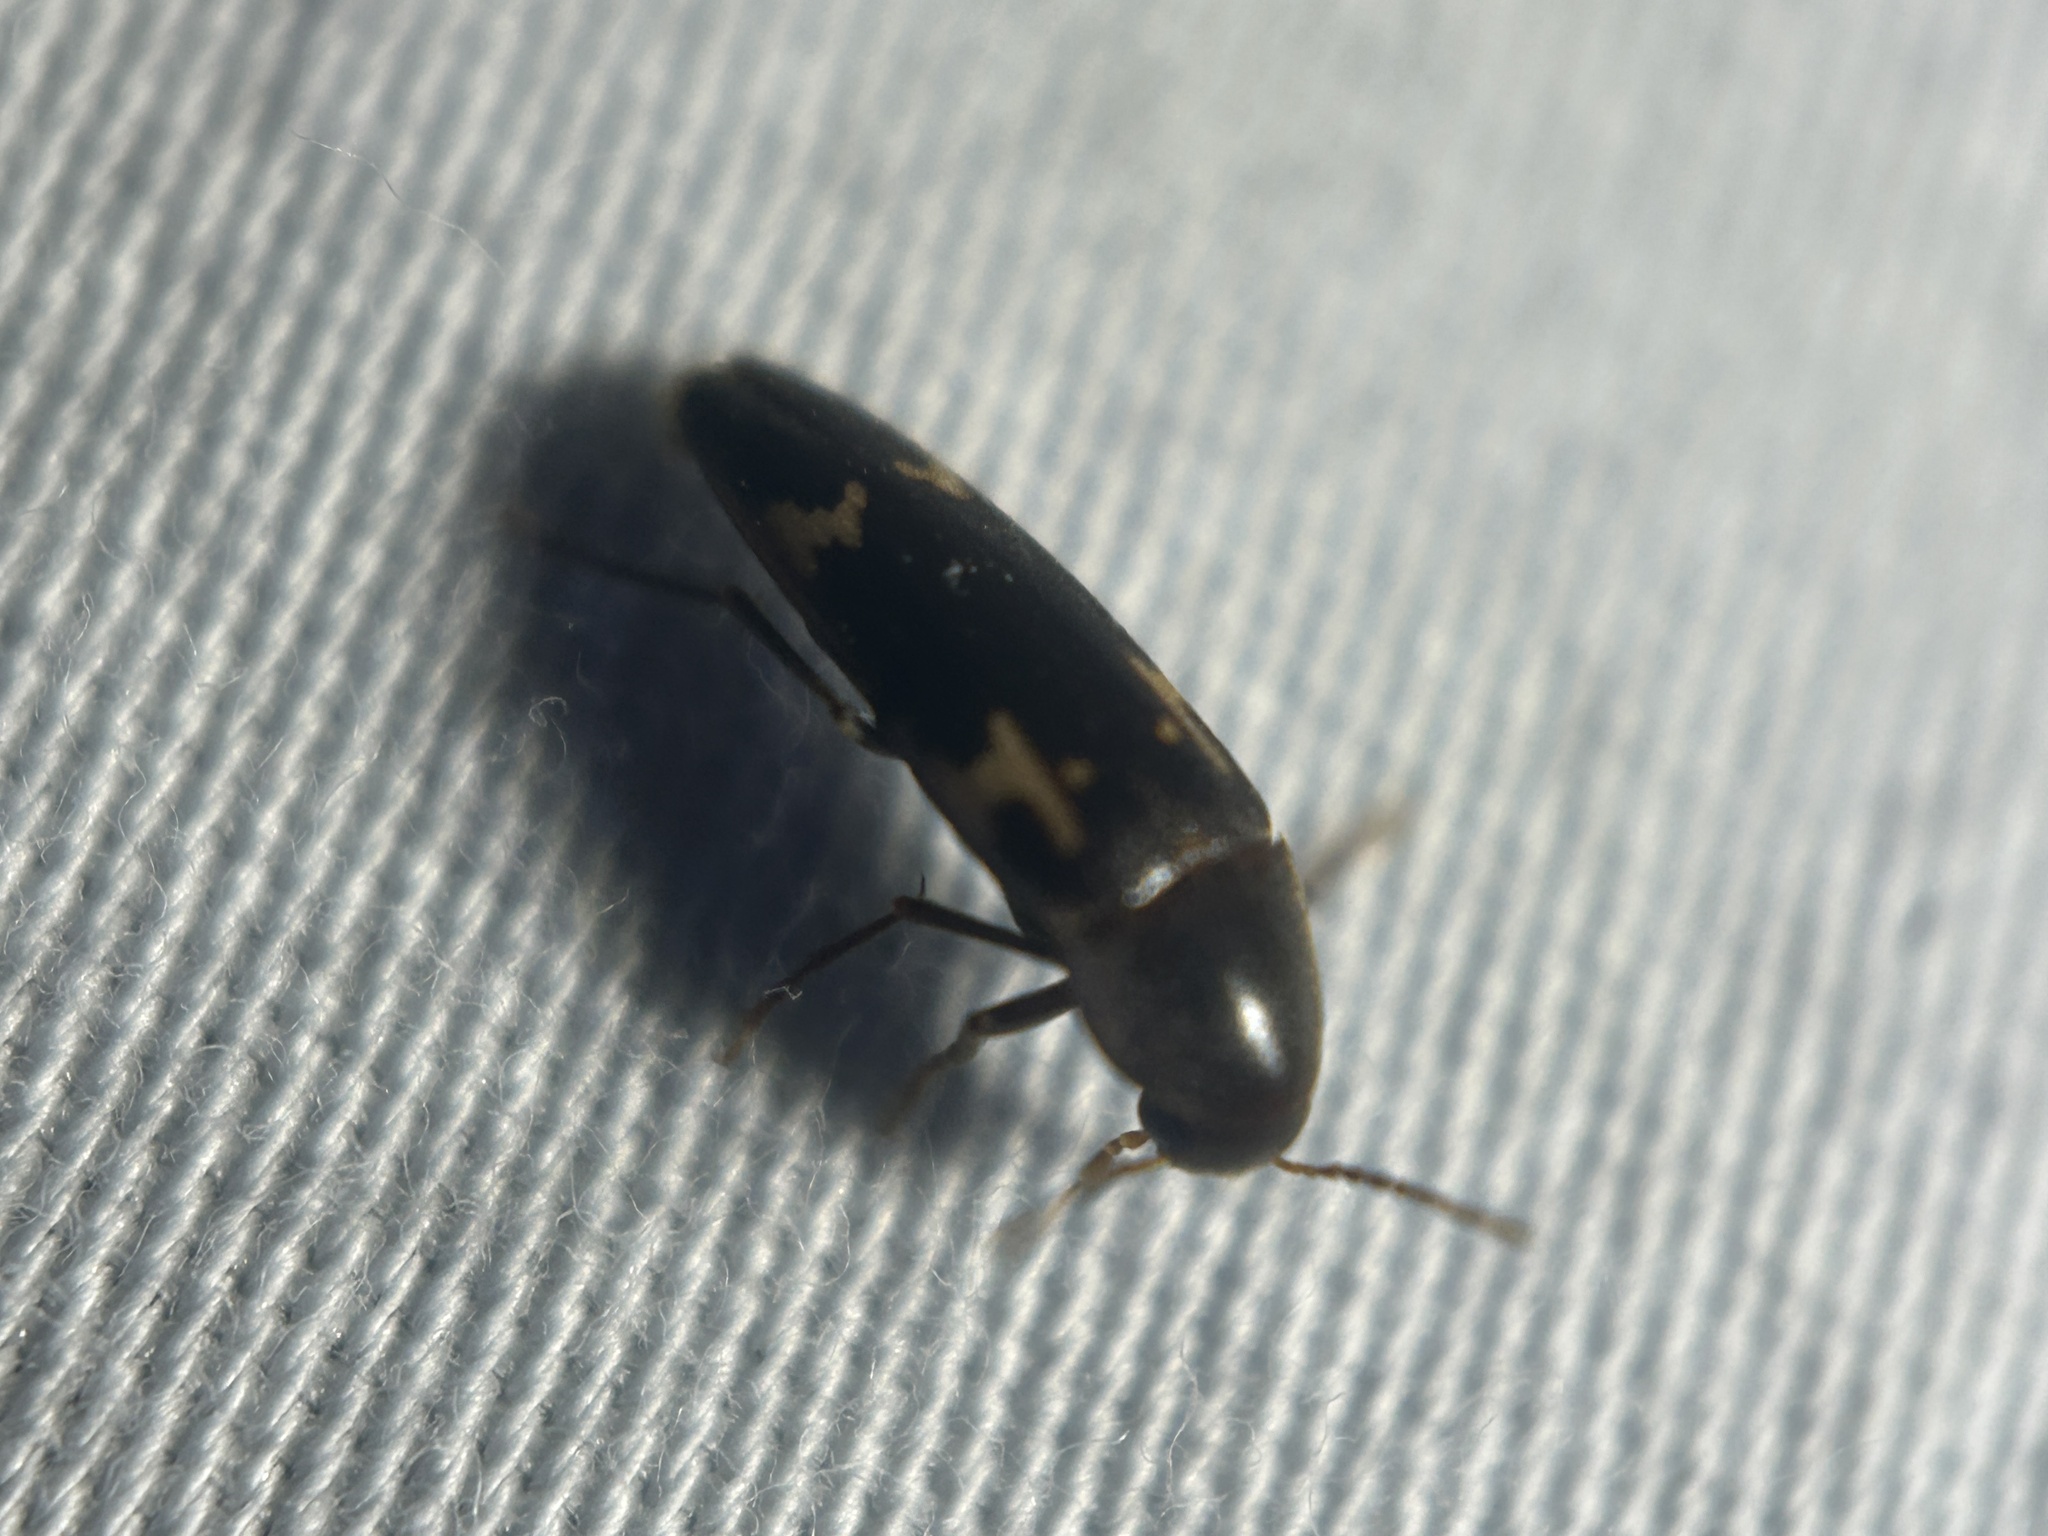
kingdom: Animalia
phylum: Arthropoda
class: Insecta
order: Coleoptera
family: Melandryidae
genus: Dircaea
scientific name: Dircaea liturata
